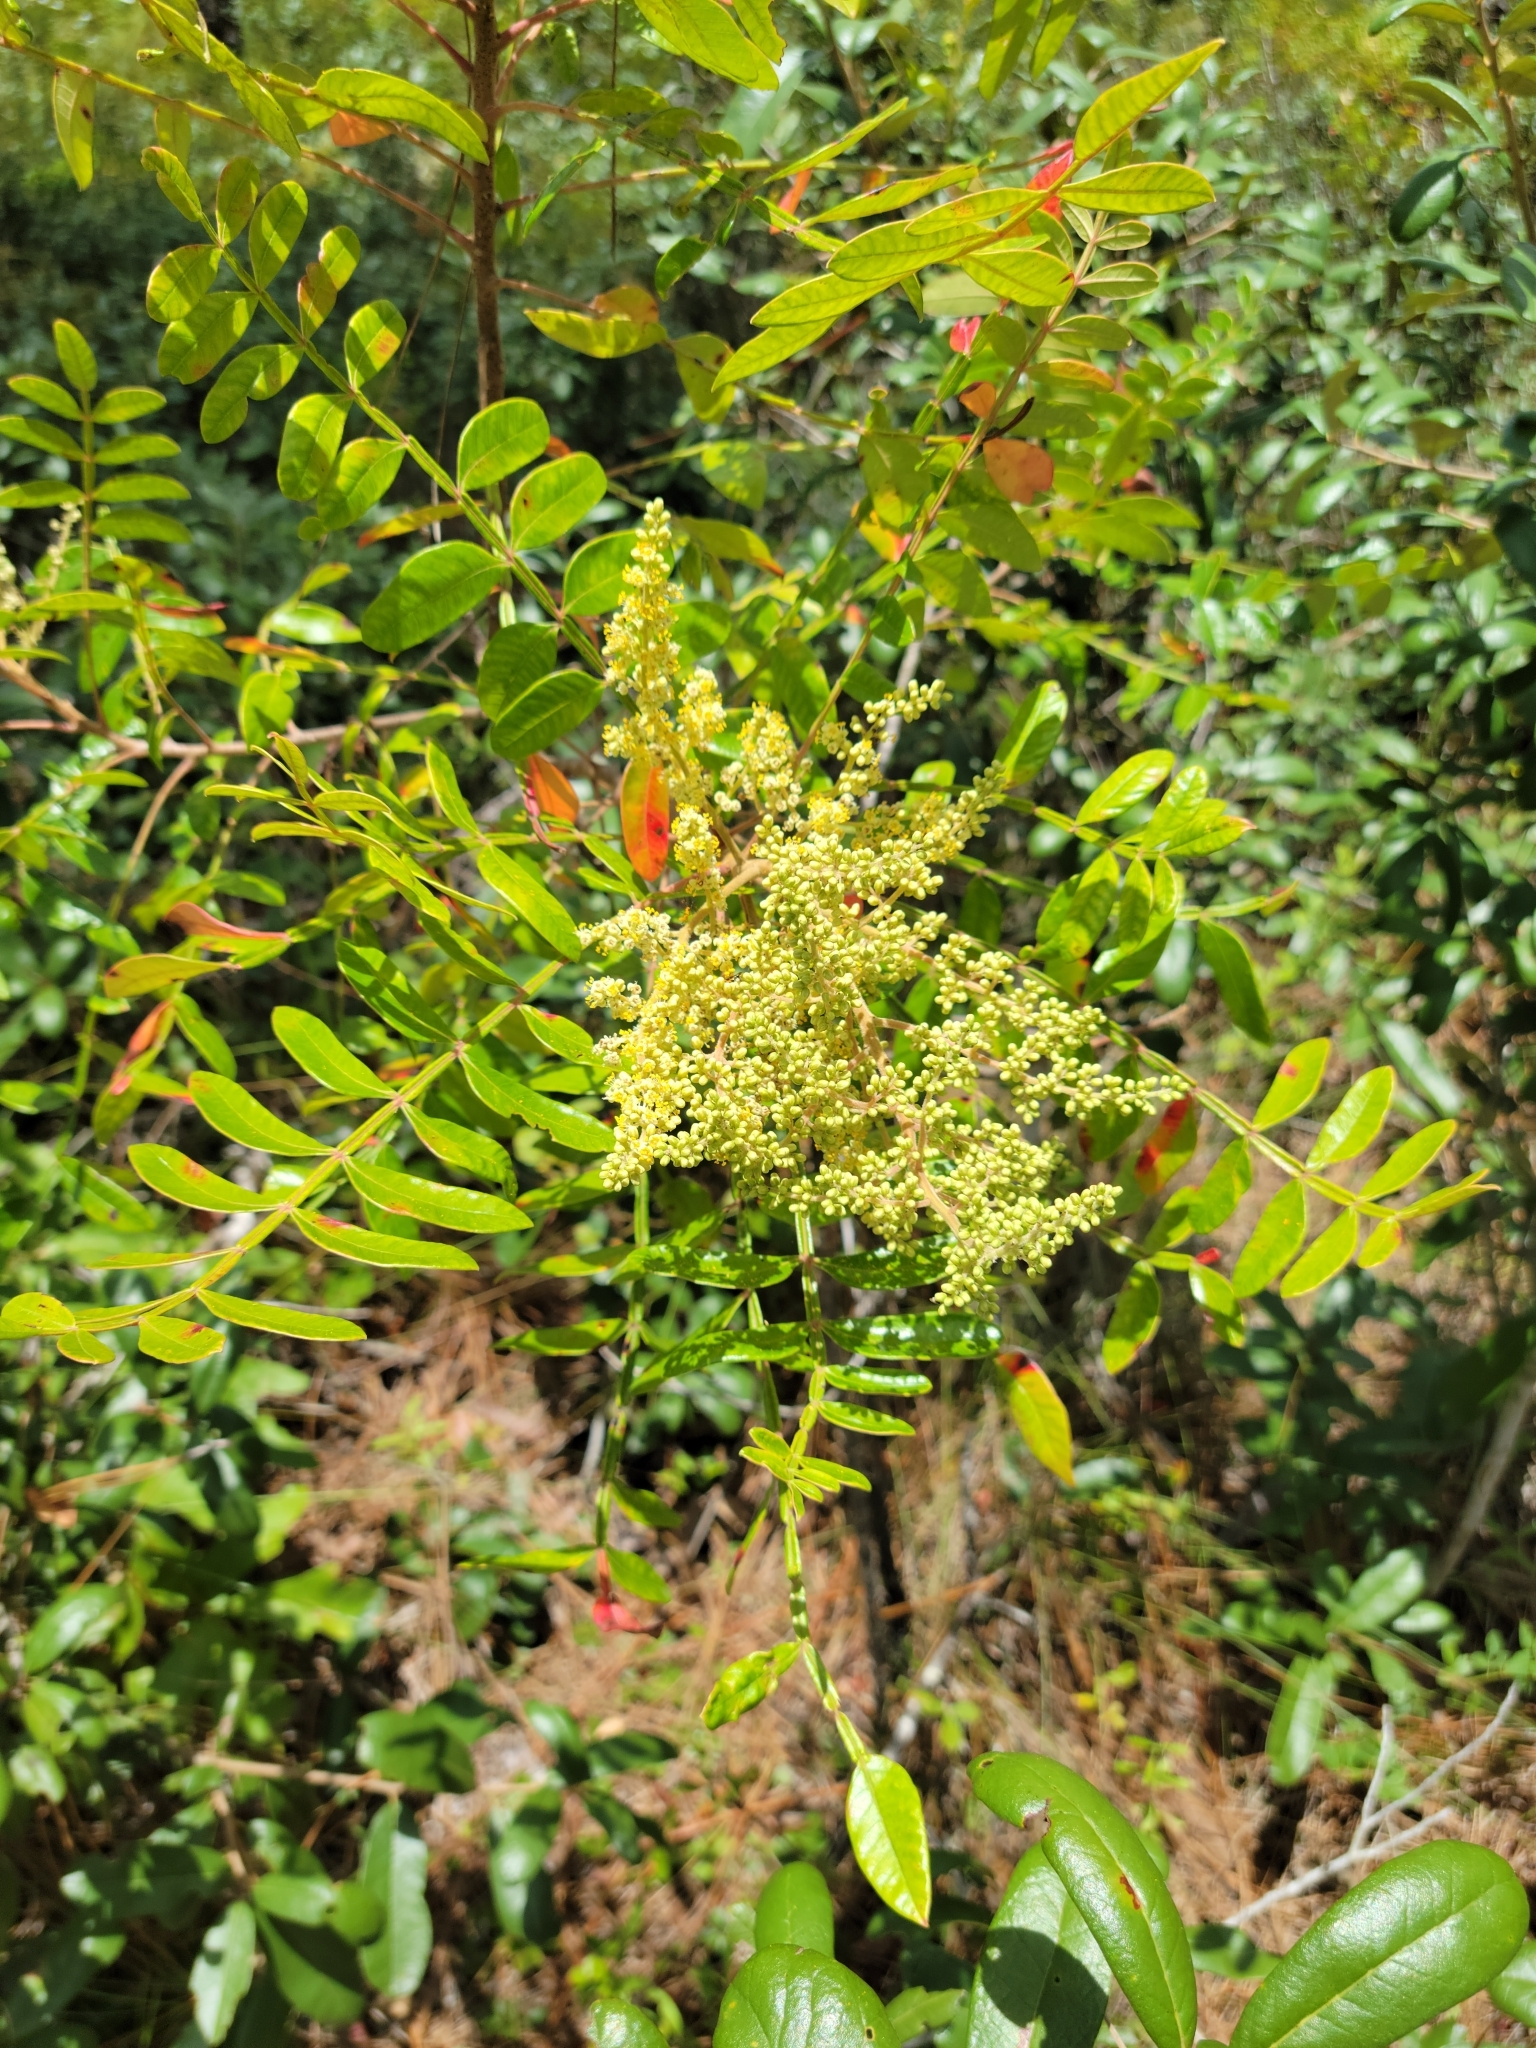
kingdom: Plantae
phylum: Tracheophyta
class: Magnoliopsida
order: Sapindales
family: Anacardiaceae
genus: Rhus
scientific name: Rhus copallina
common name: Shining sumac
